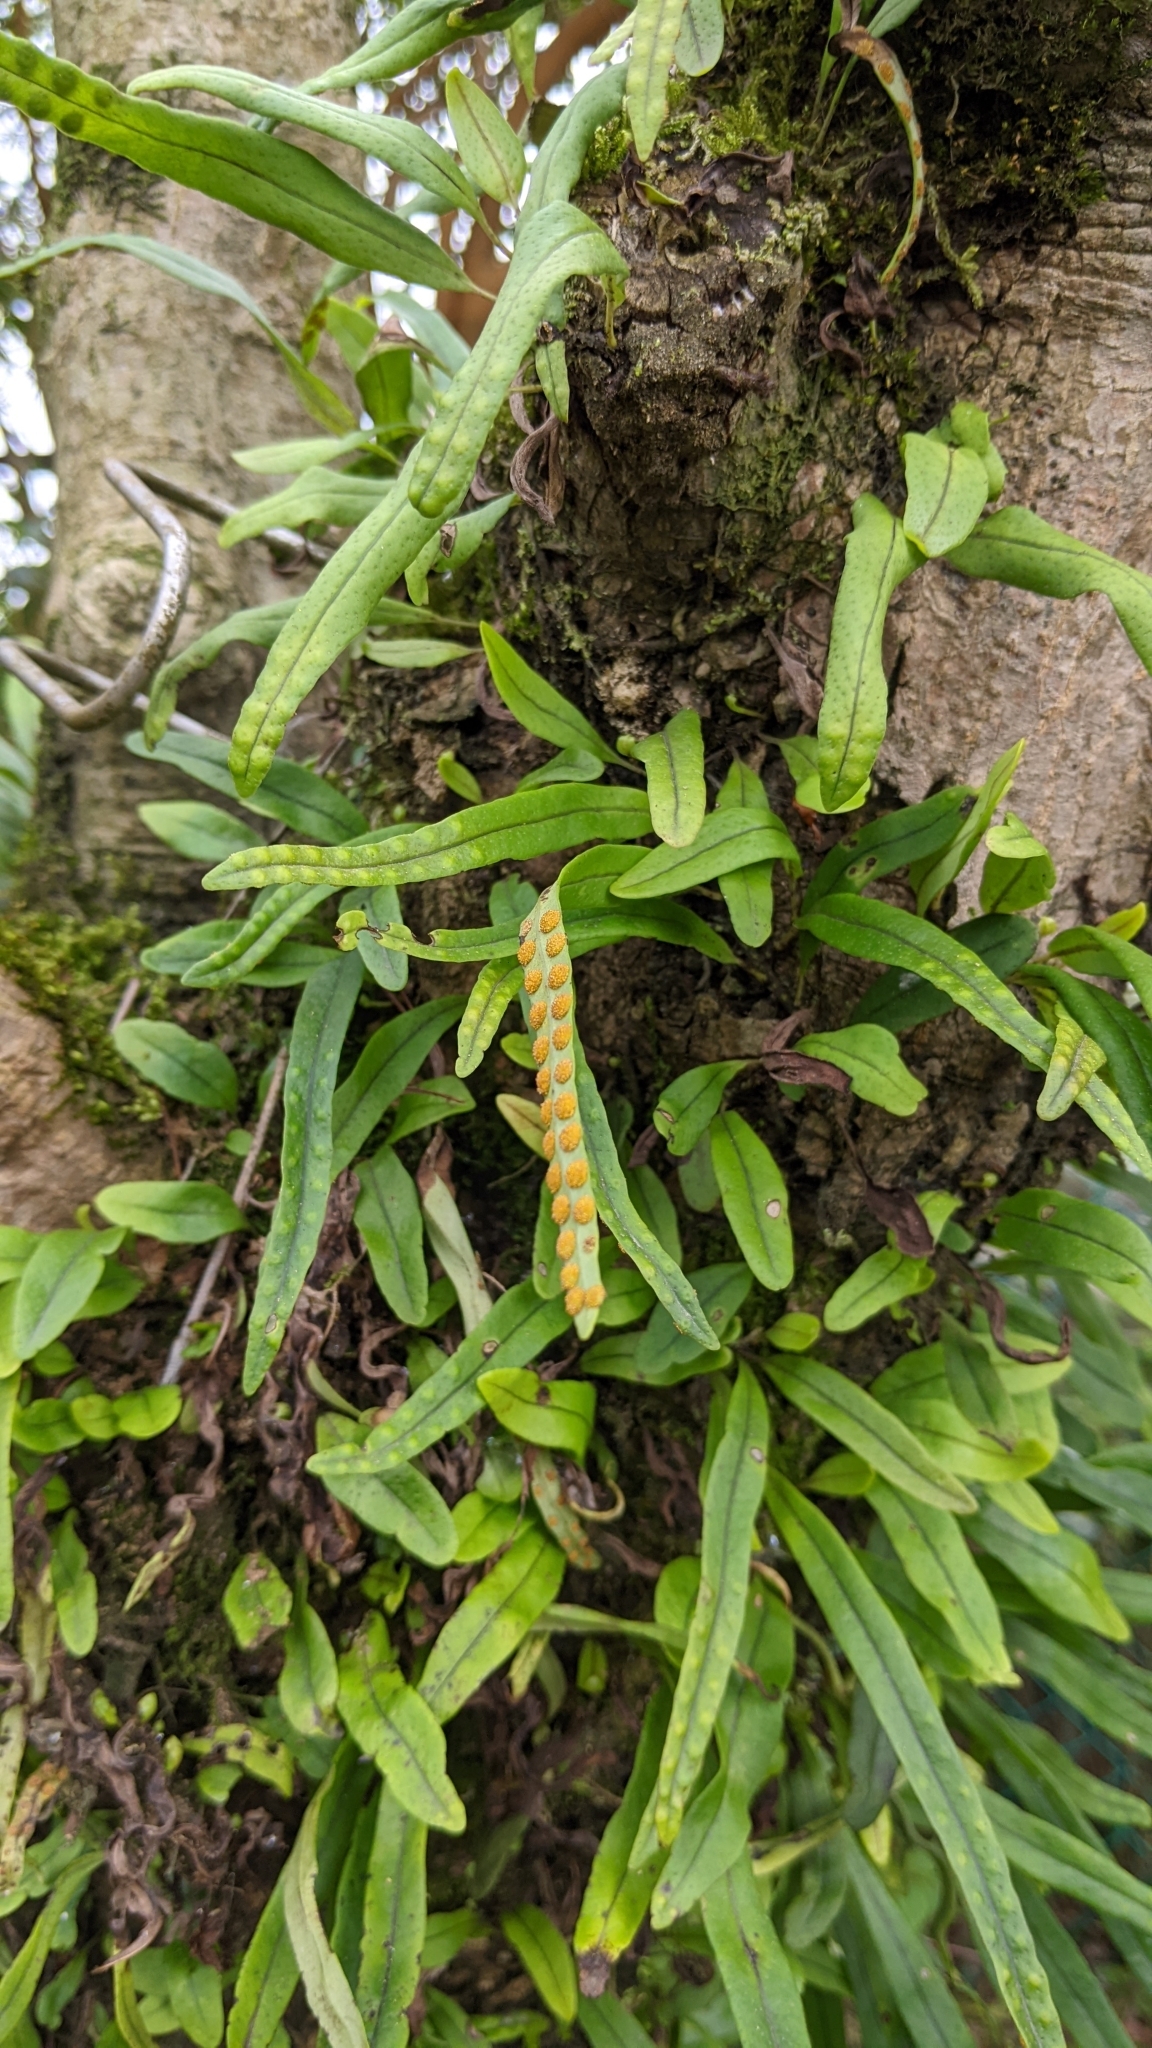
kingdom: Plantae
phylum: Tracheophyta
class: Polypodiopsida
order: Polypodiales
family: Polypodiaceae
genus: Lepisorus
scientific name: Lepisorus thunbergianus
